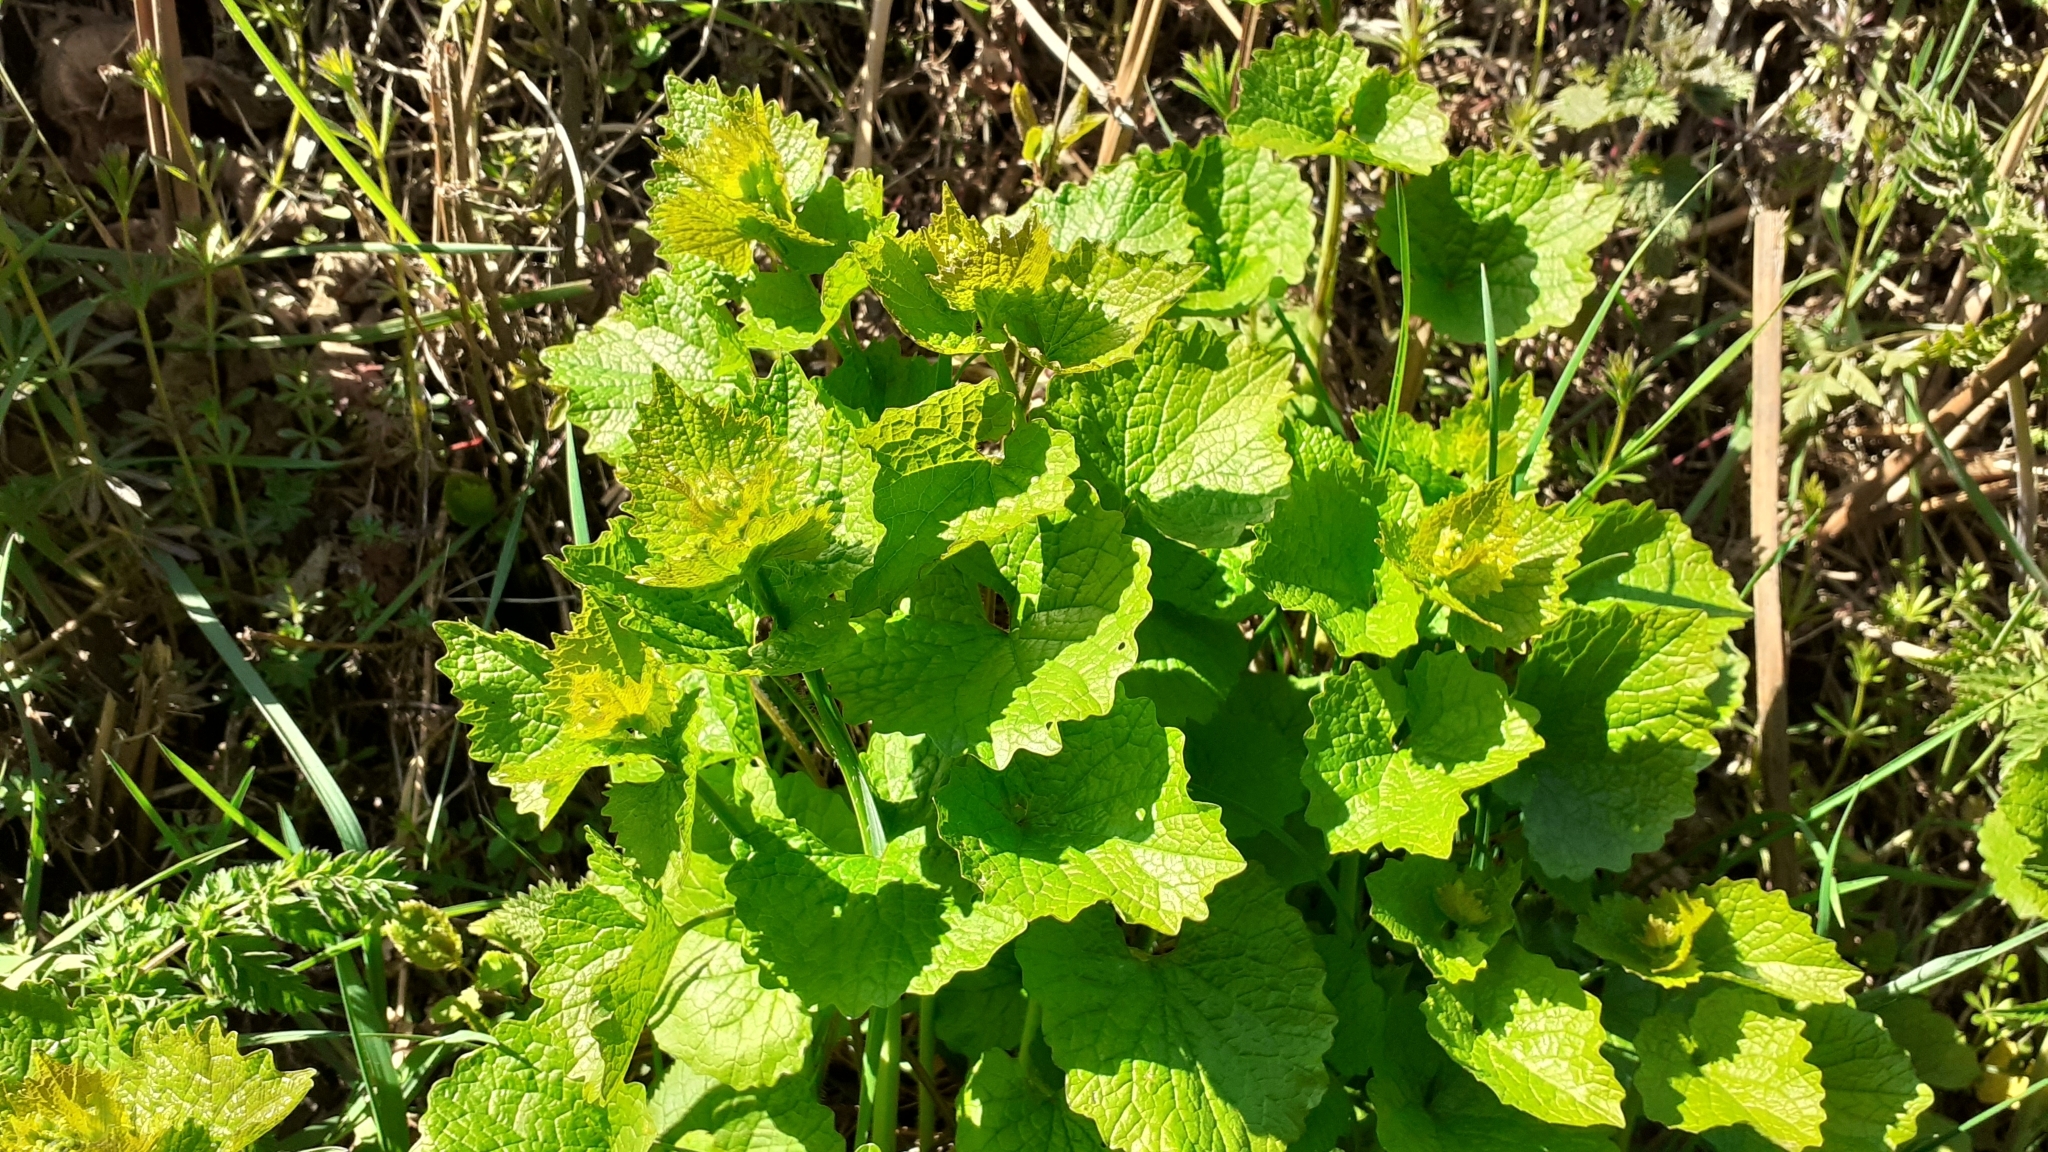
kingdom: Plantae
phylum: Tracheophyta
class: Magnoliopsida
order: Brassicales
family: Brassicaceae
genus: Alliaria
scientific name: Alliaria petiolata
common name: Garlic mustard
